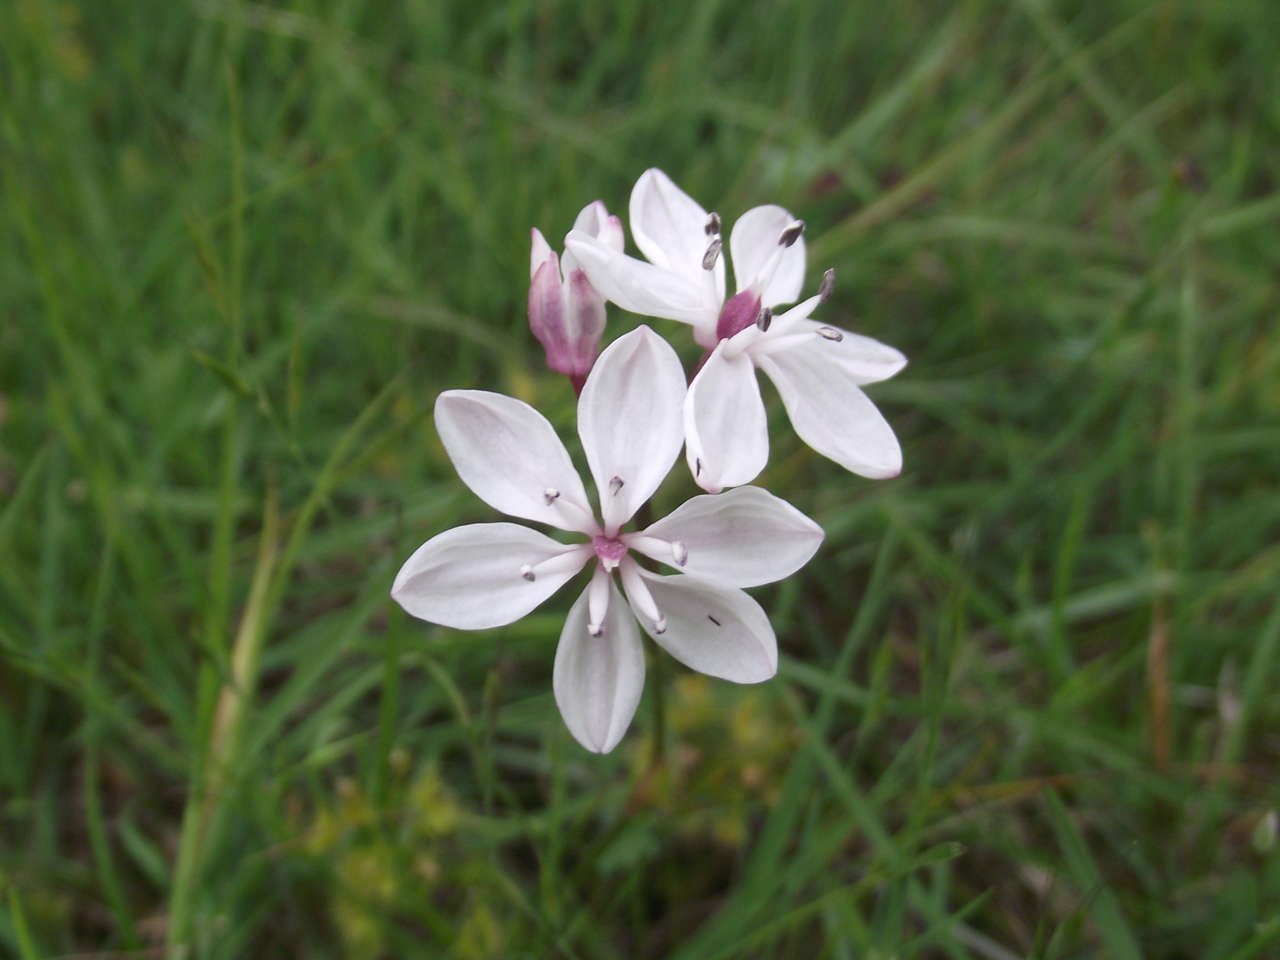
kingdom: Plantae
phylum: Tracheophyta
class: Liliopsida
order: Liliales
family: Colchicaceae
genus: Burchardia
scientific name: Burchardia umbellata
